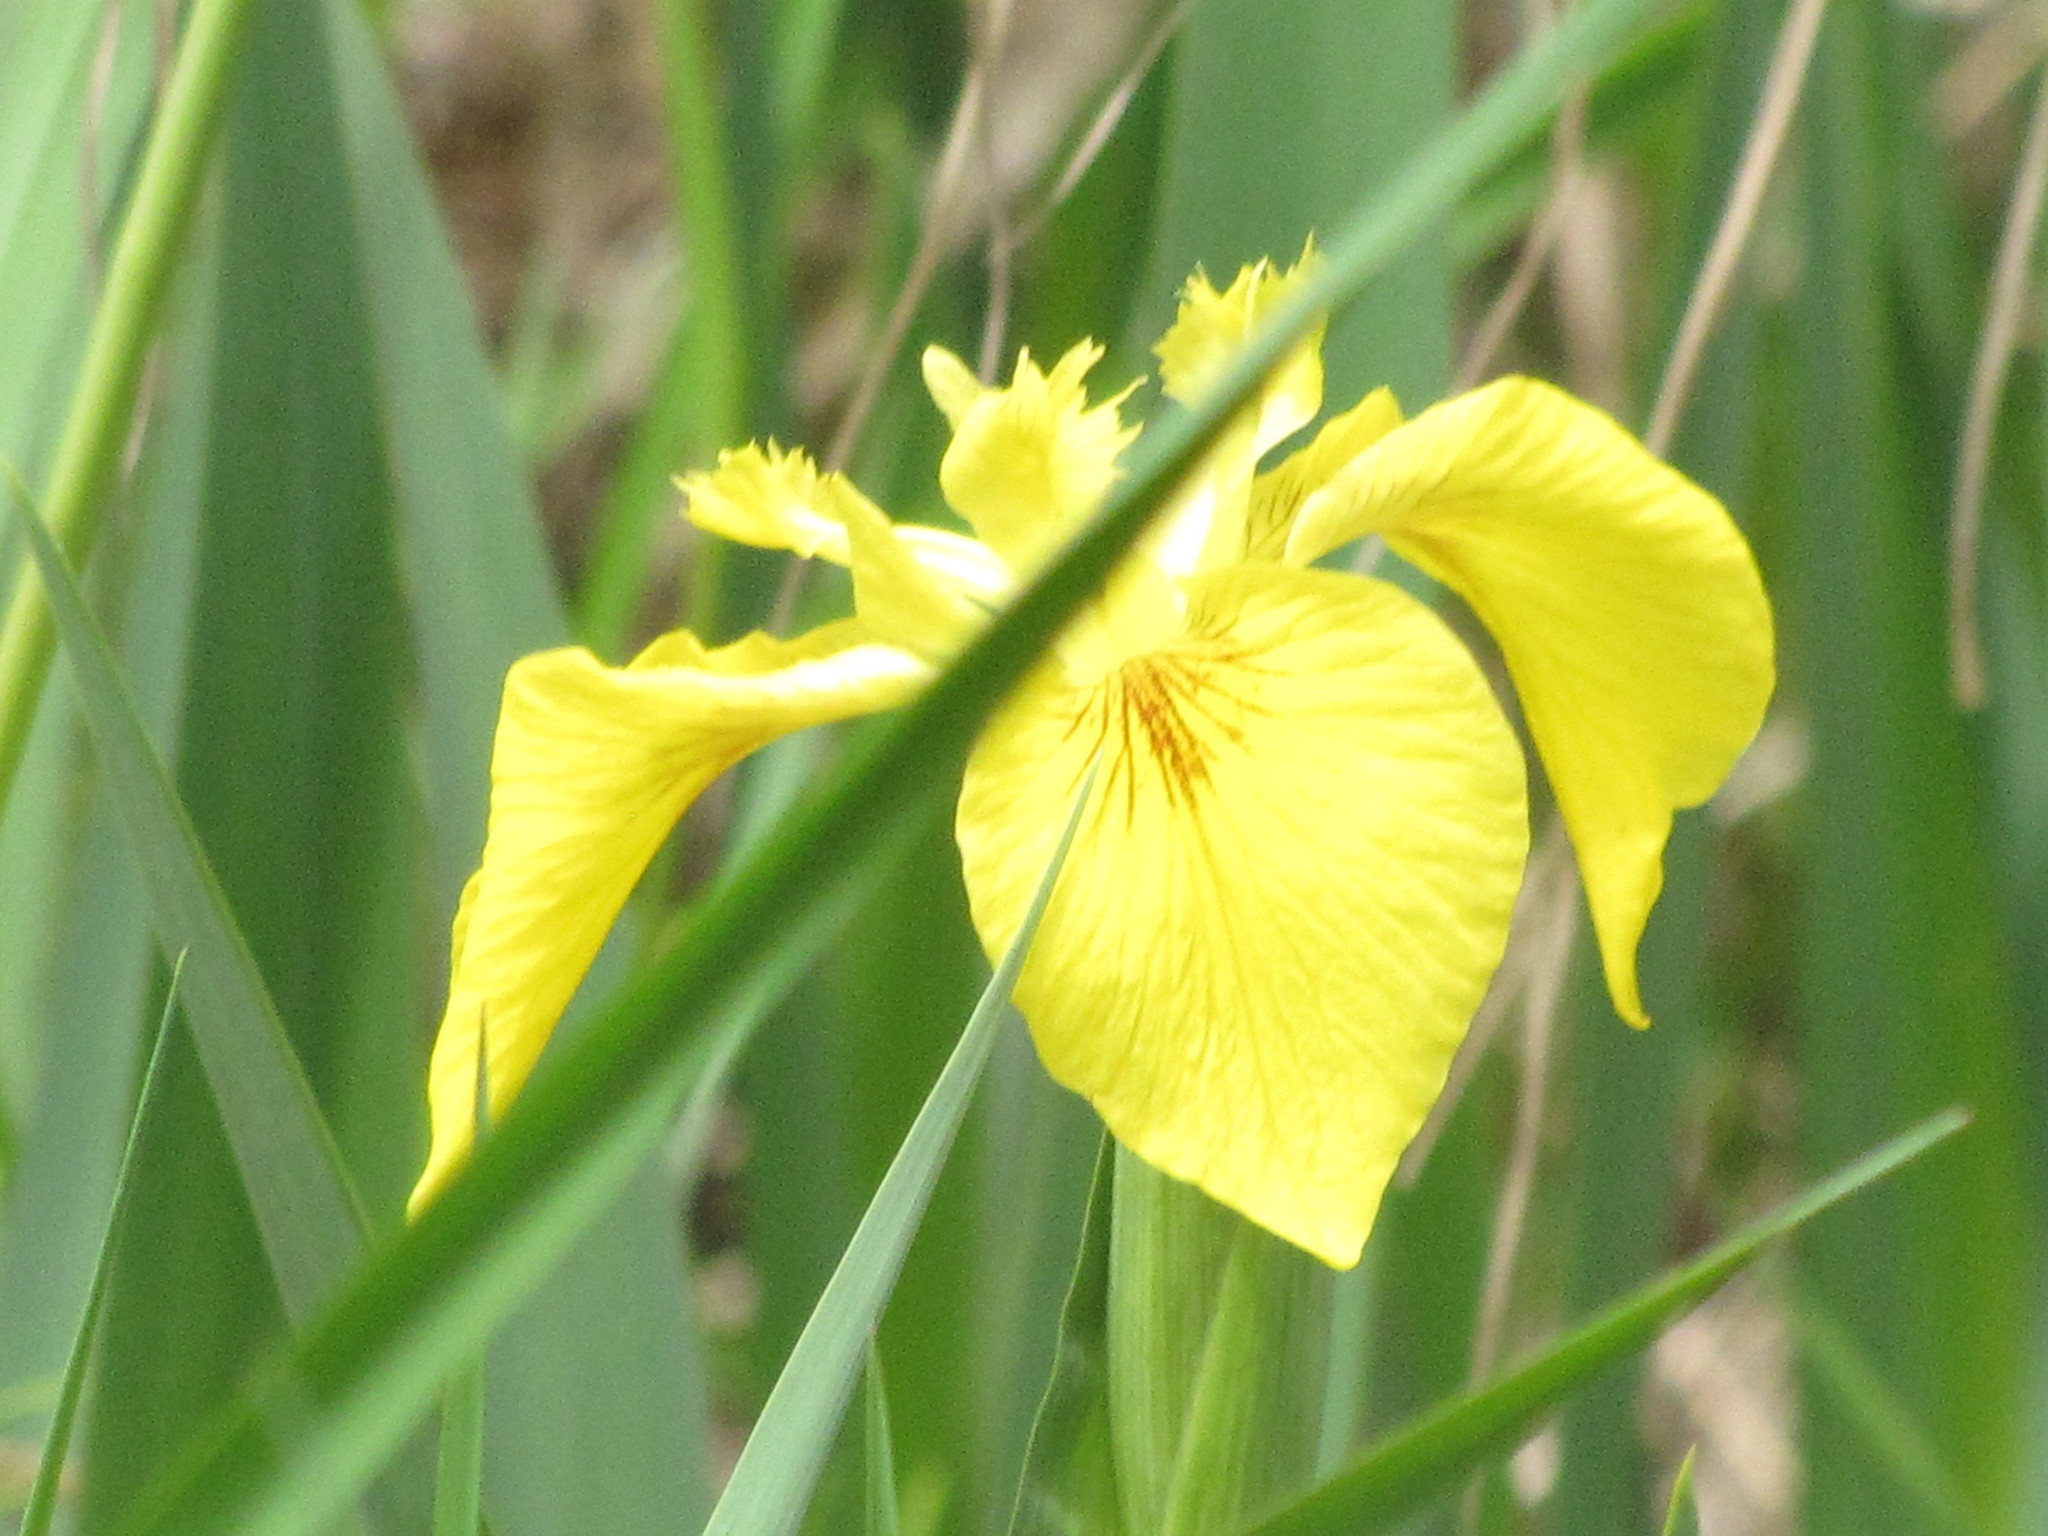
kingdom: Plantae
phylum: Tracheophyta
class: Liliopsida
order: Asparagales
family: Iridaceae
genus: Iris
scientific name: Iris pseudacorus
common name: Yellow flag
